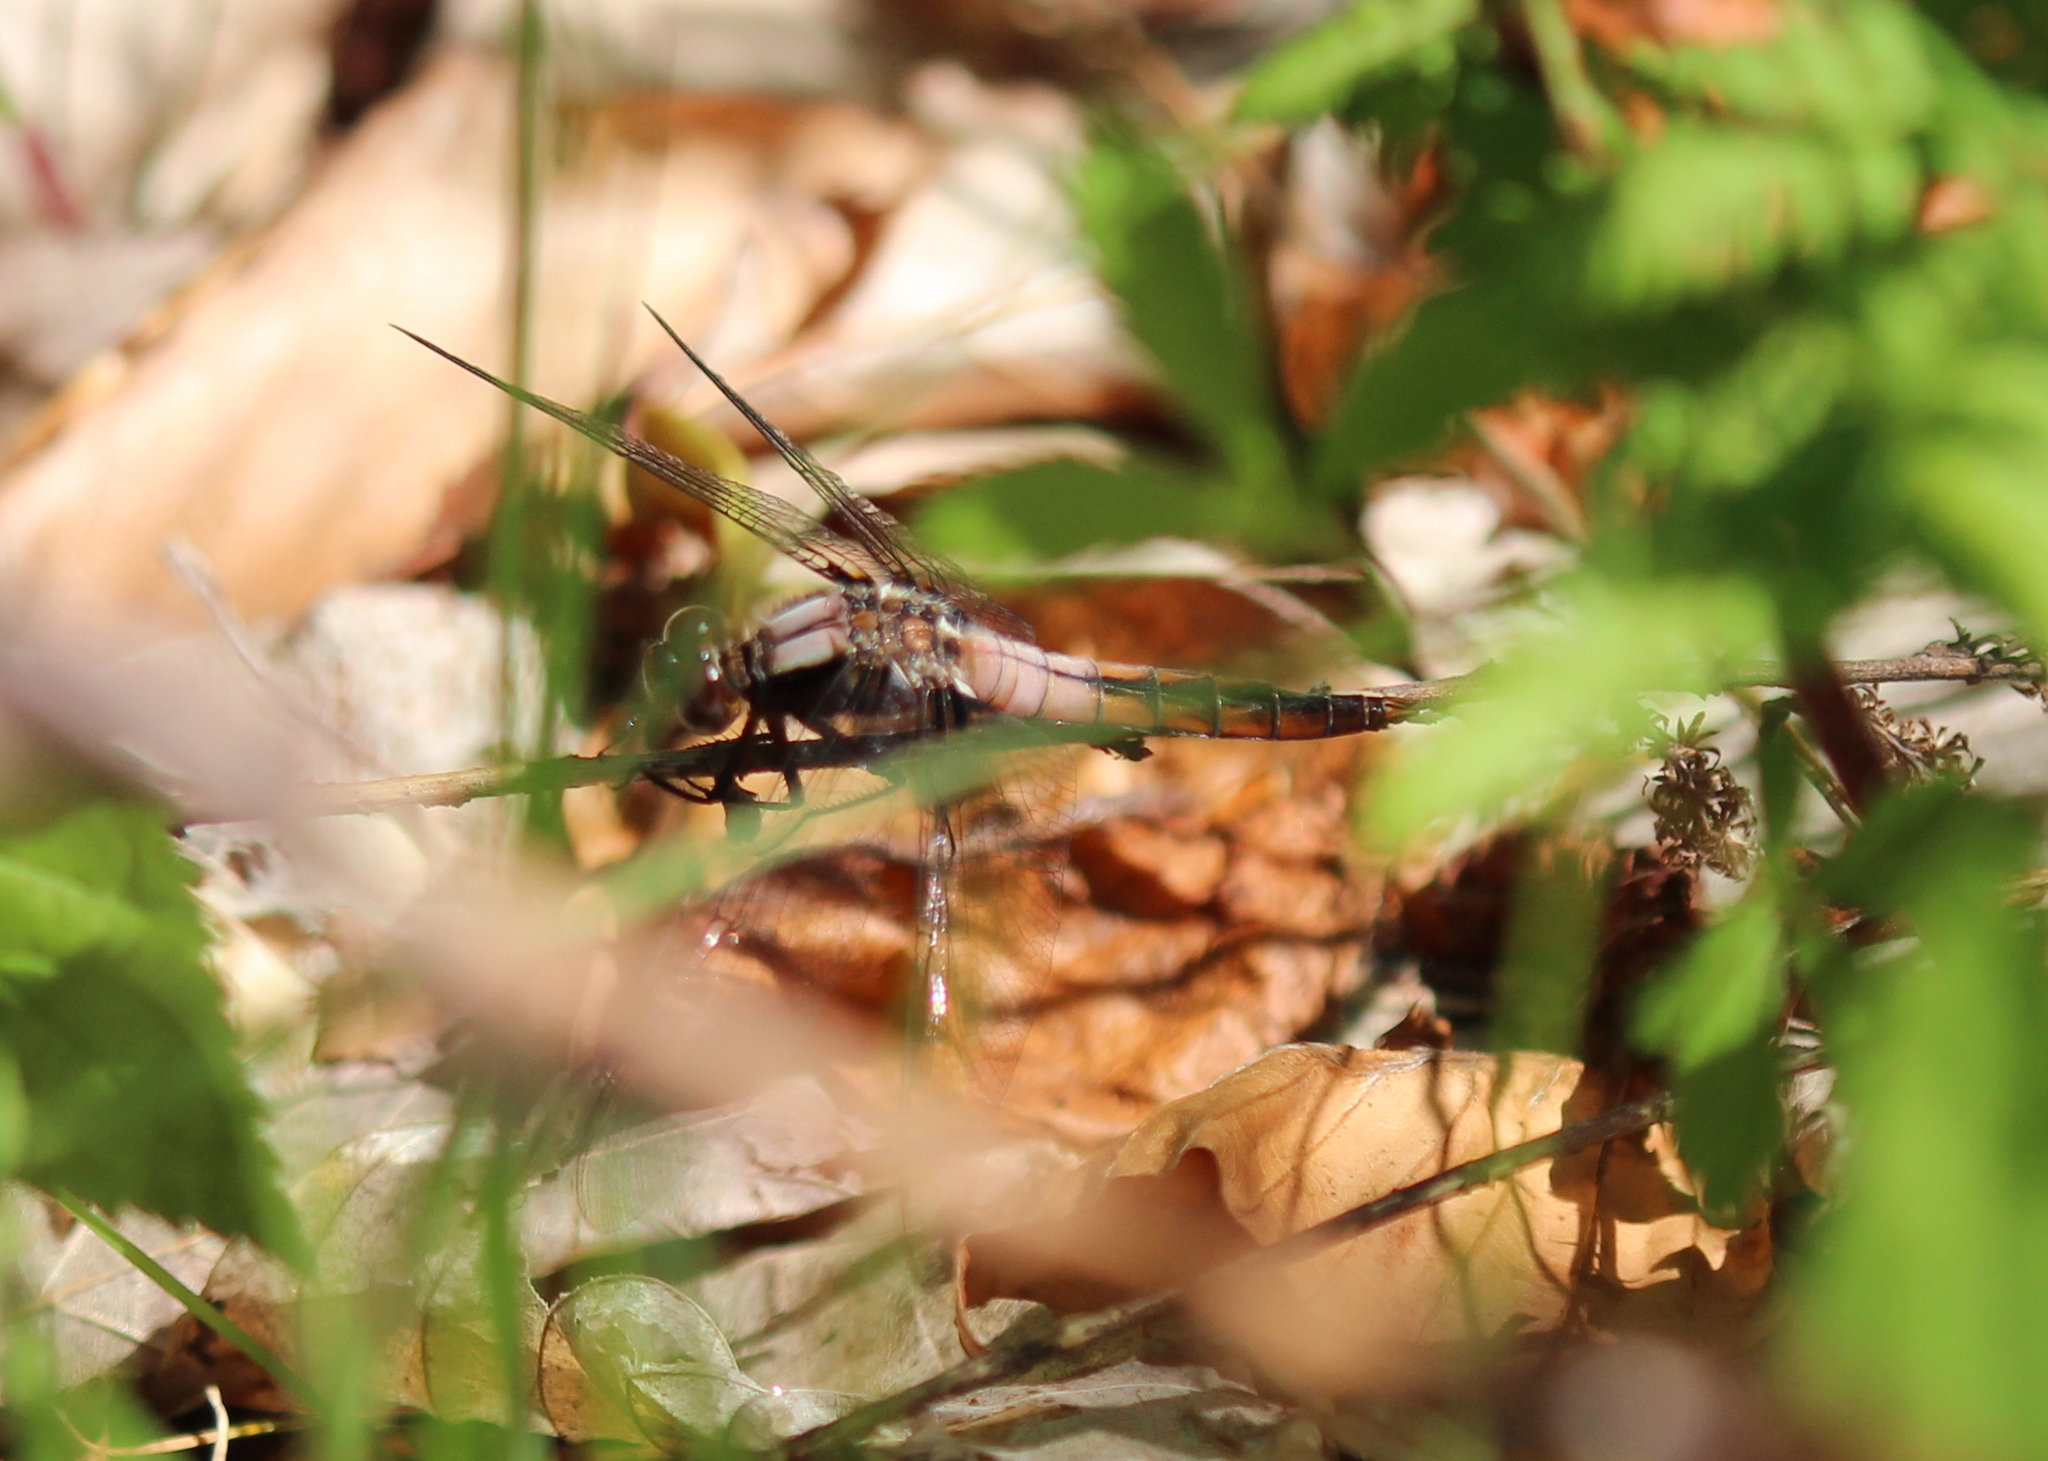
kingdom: Animalia
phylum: Arthropoda
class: Insecta
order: Odonata
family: Libellulidae
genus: Ladona
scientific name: Ladona julia
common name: Chalk-fronted corporal
